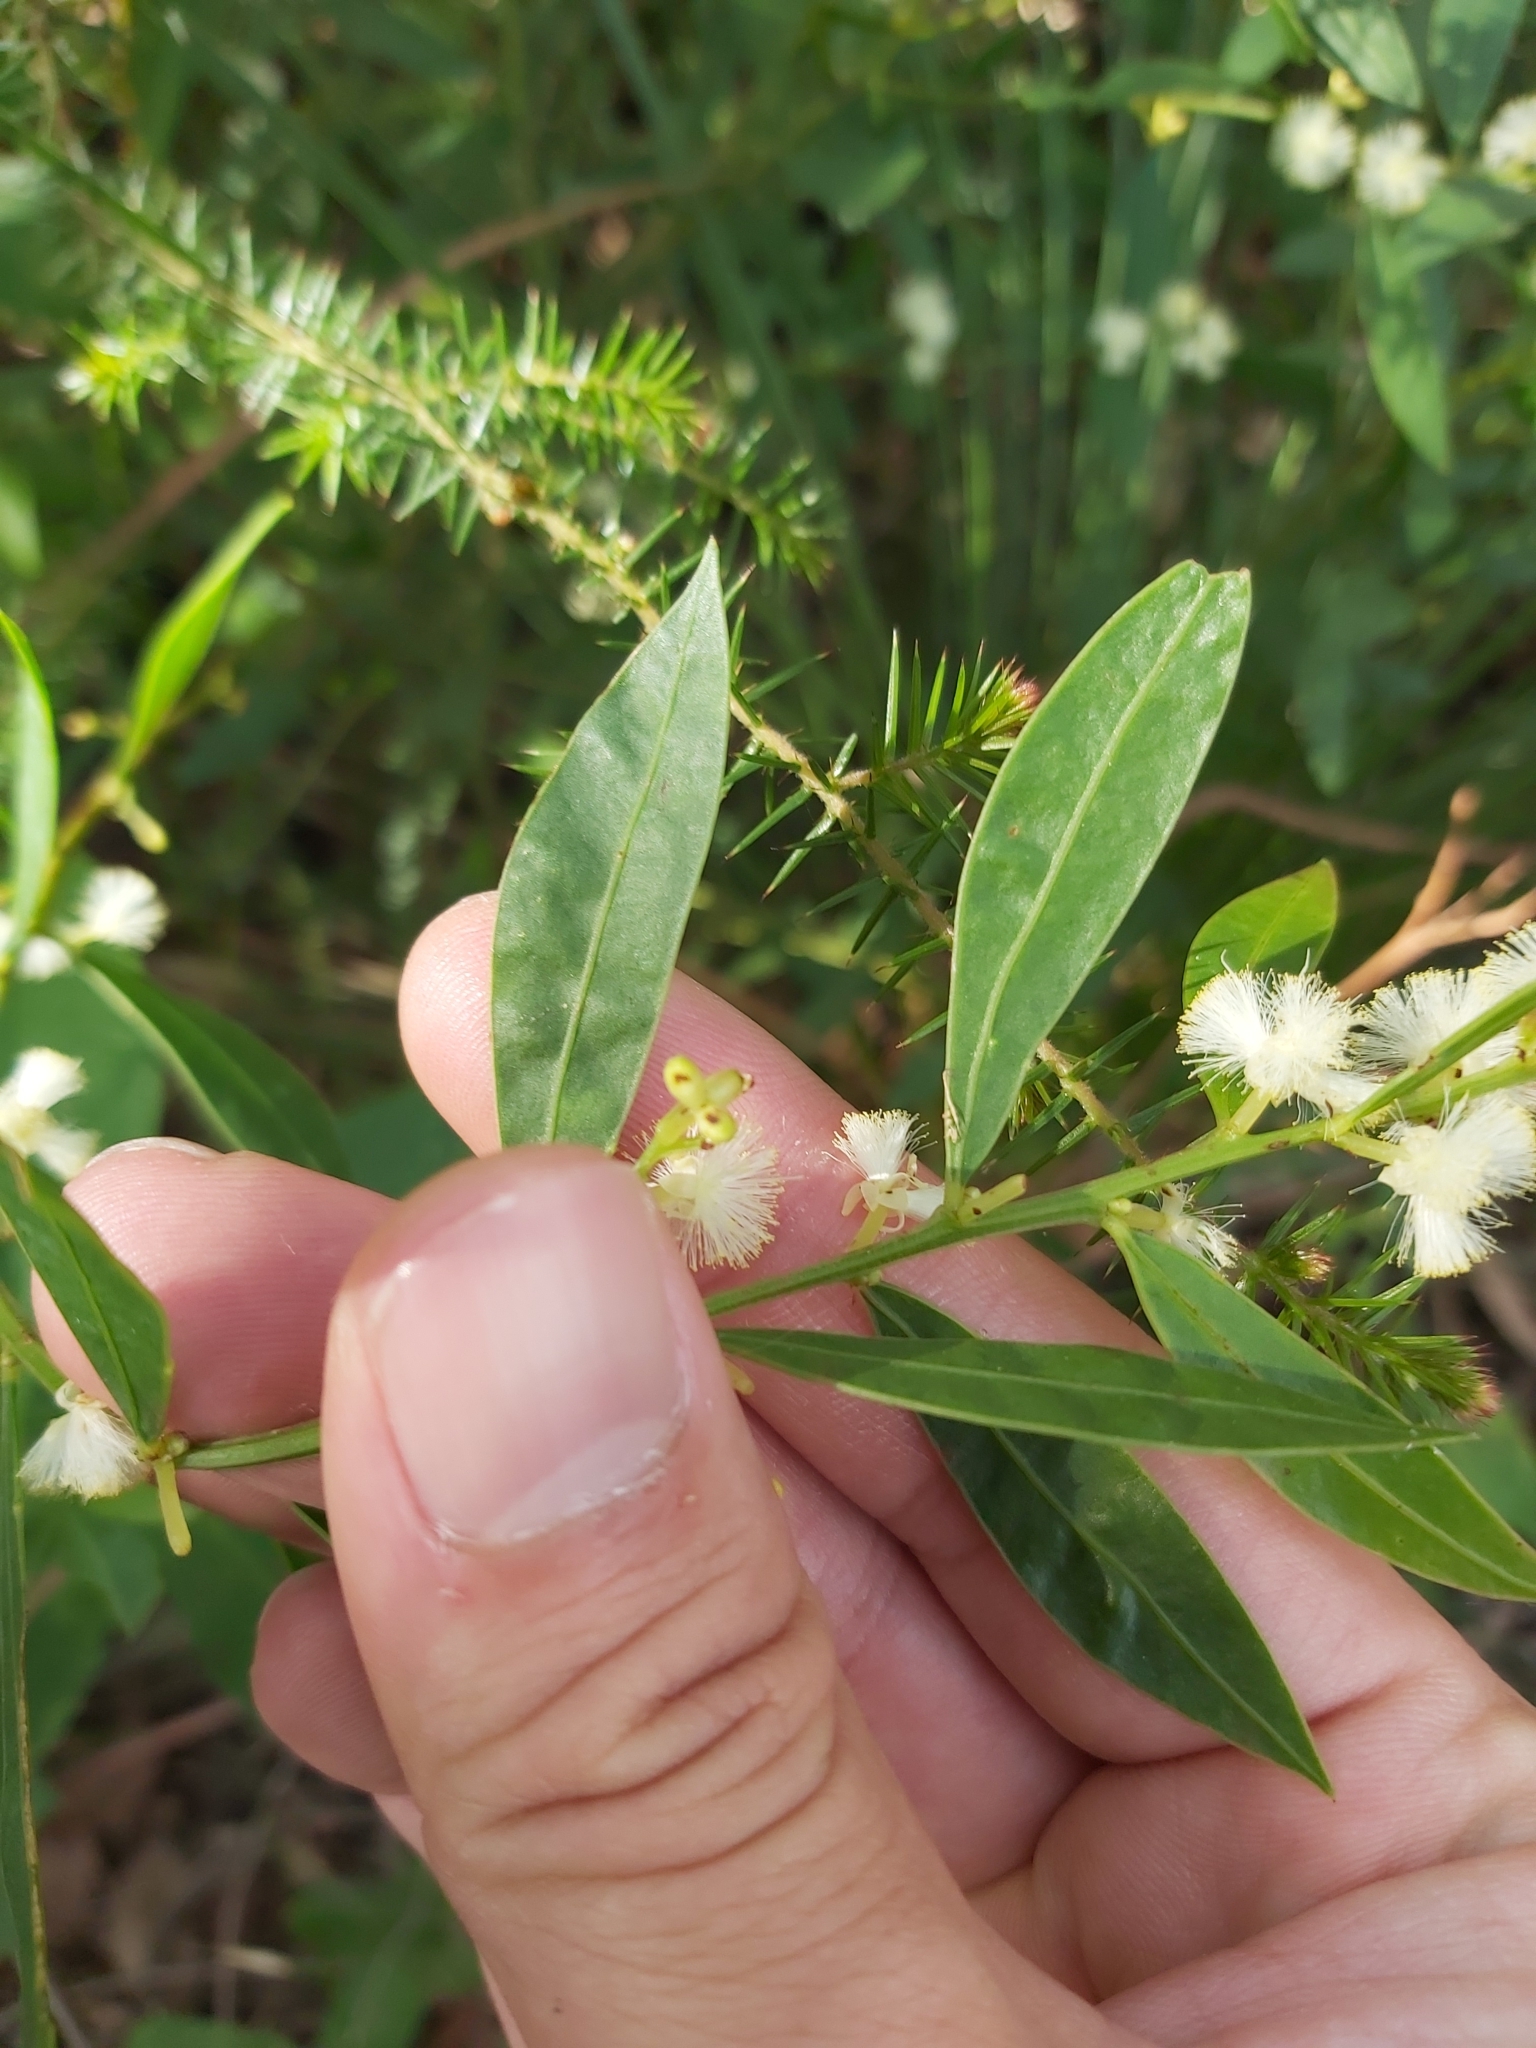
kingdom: Plantae
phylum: Tracheophyta
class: Magnoliopsida
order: Fabales
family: Fabaceae
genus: Acacia
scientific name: Acacia myrtifolia
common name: Myrtle wattle
